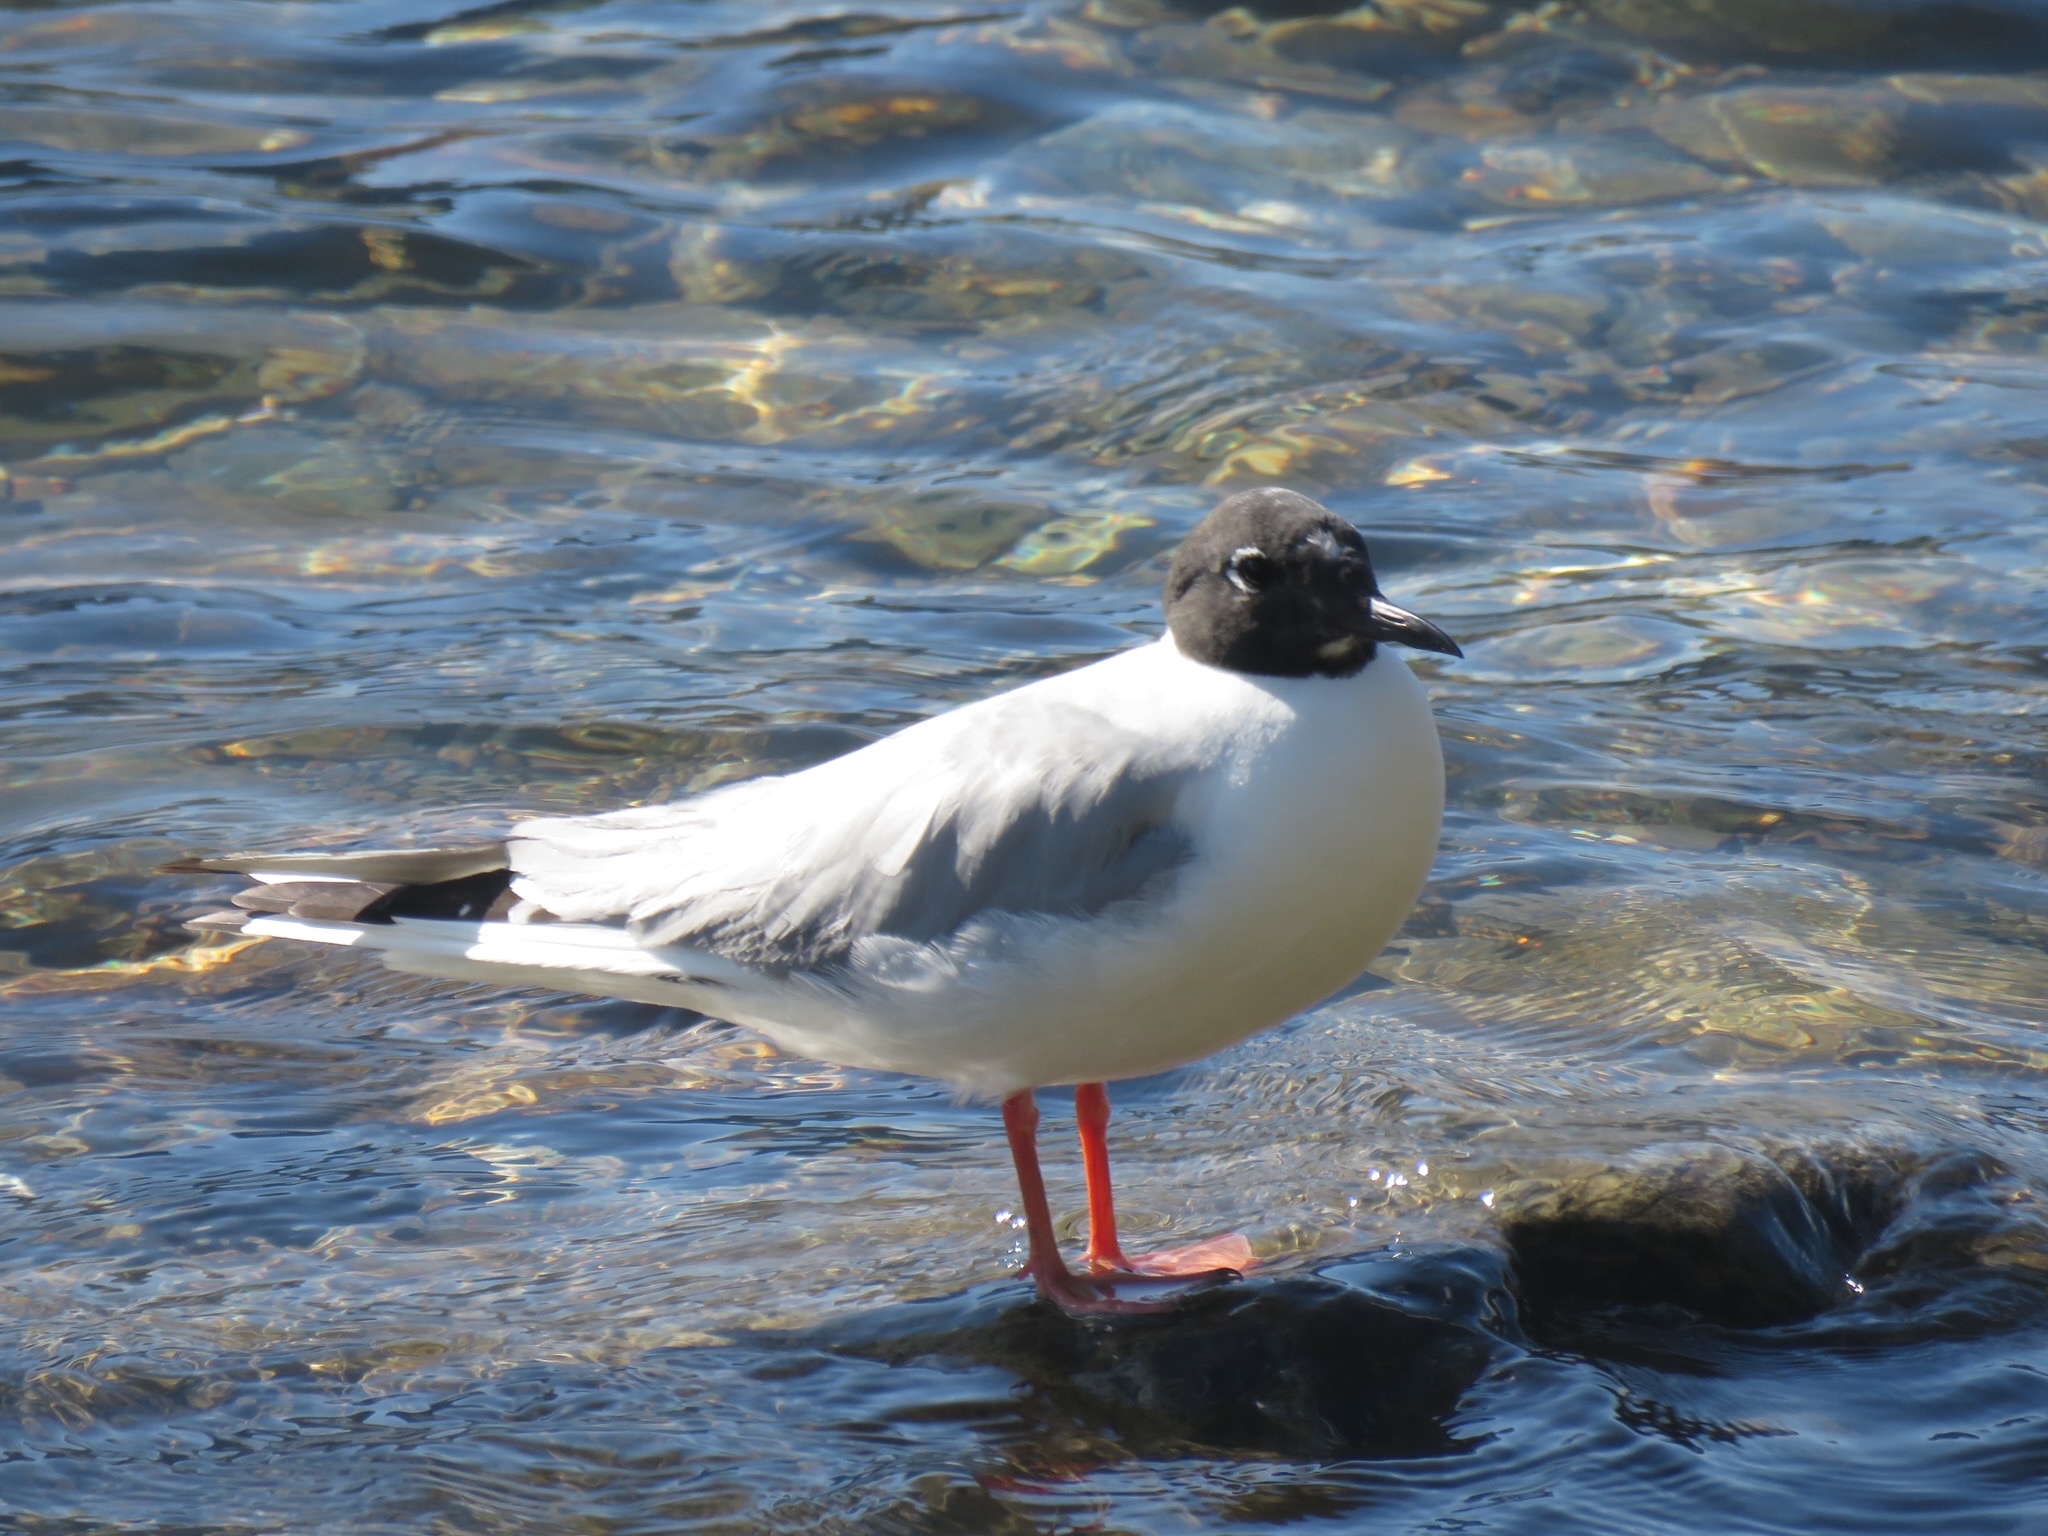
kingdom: Animalia
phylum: Chordata
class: Aves
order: Charadriiformes
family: Laridae
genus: Chroicocephalus
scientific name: Chroicocephalus philadelphia
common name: Bonaparte's gull
